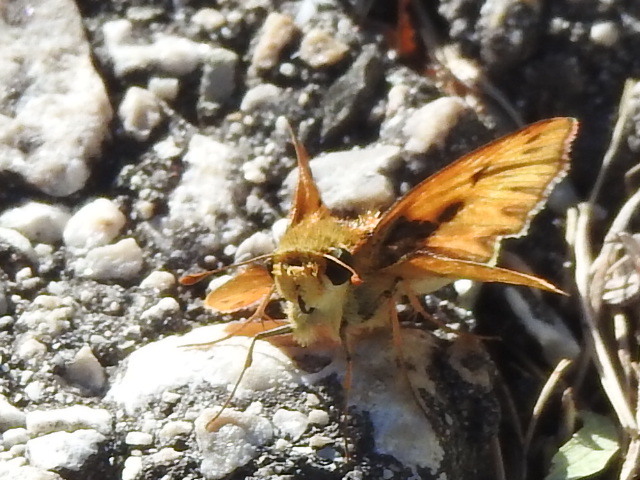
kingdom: Animalia
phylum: Arthropoda
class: Insecta
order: Lepidoptera
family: Hesperiidae
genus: Hylephila
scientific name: Hylephila phyleus
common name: Fiery skipper
